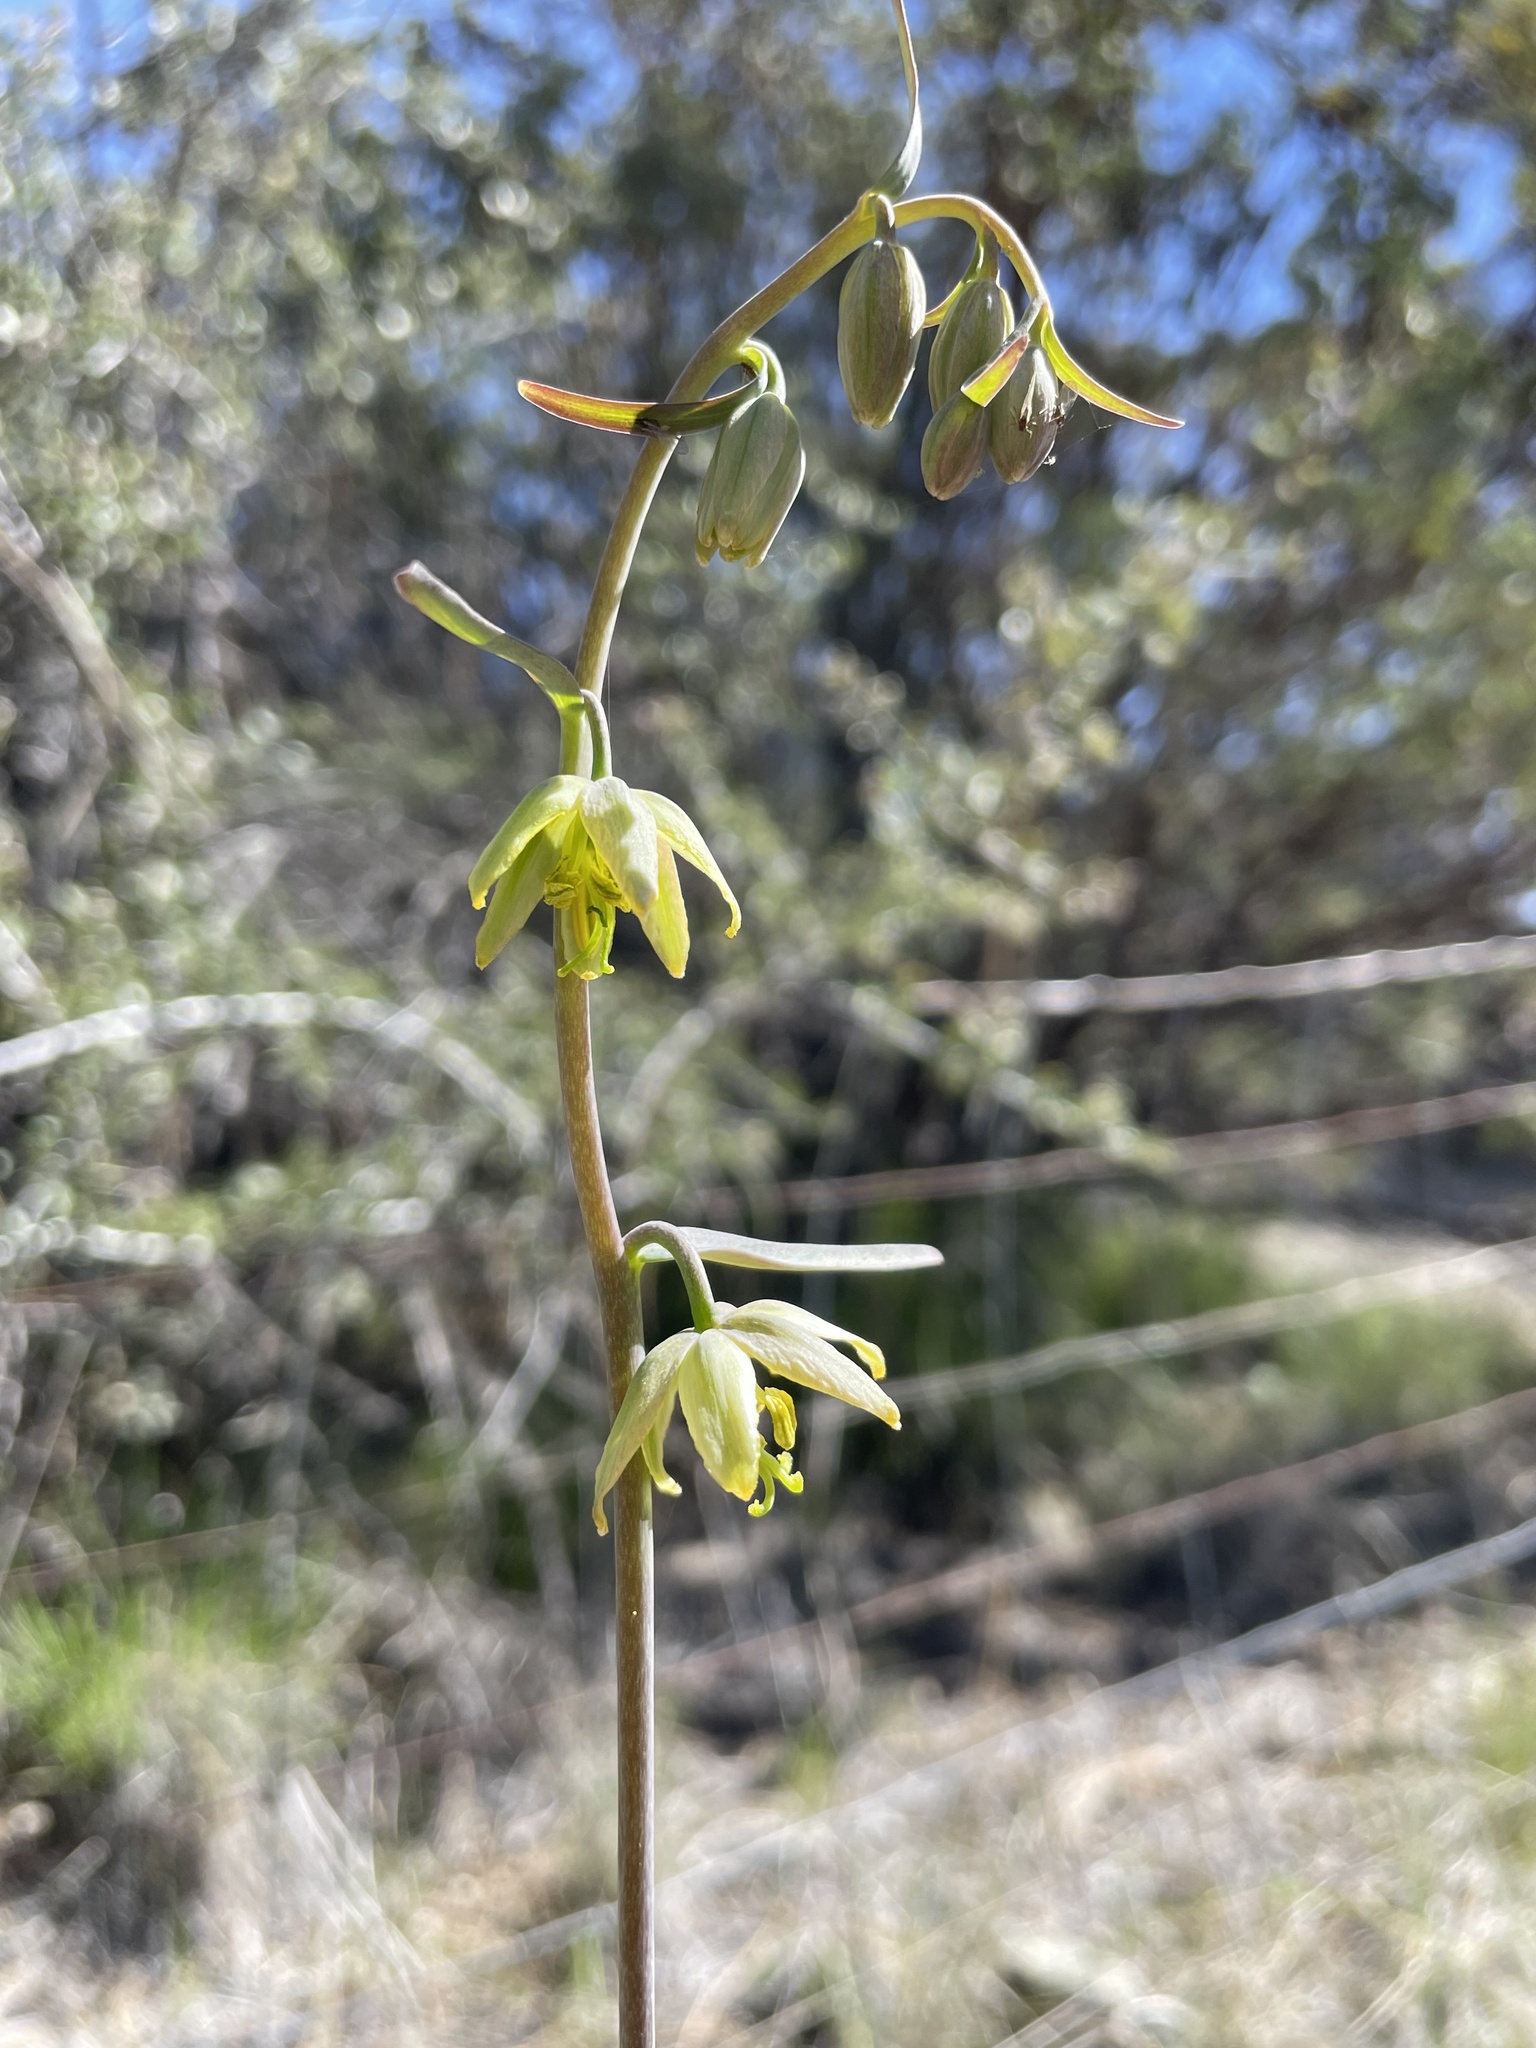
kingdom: Plantae
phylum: Tracheophyta
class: Liliopsida
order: Liliales
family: Liliaceae
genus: Fritillaria
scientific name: Fritillaria viridea
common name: San benito fritillary
